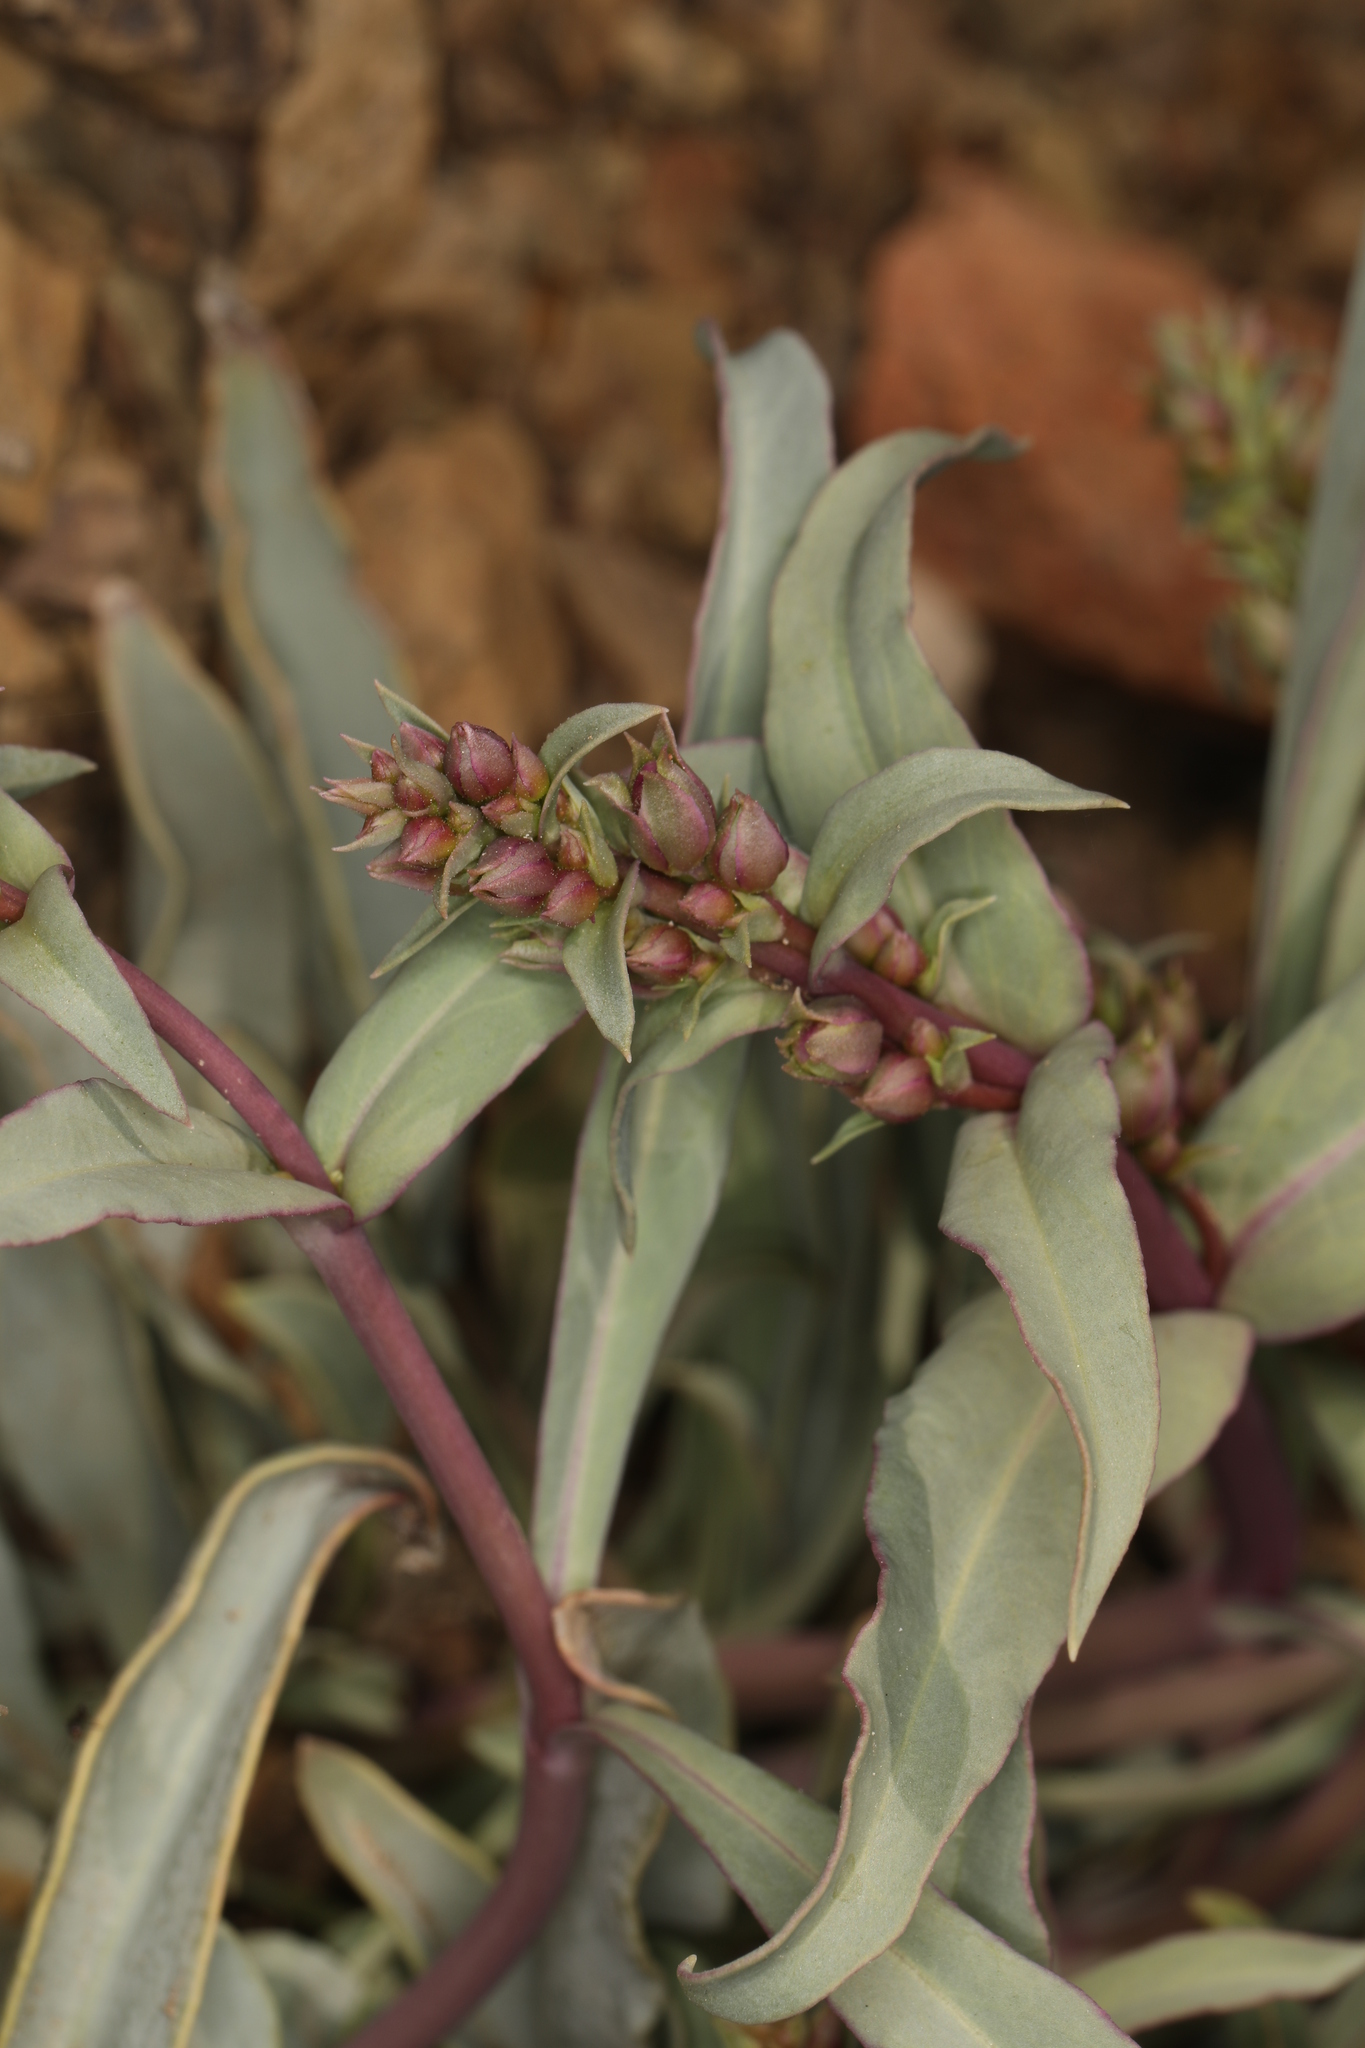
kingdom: Plantae
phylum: Tracheophyta
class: Magnoliopsida
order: Lamiales
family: Plantaginaceae
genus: Penstemon
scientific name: Penstemon patens
